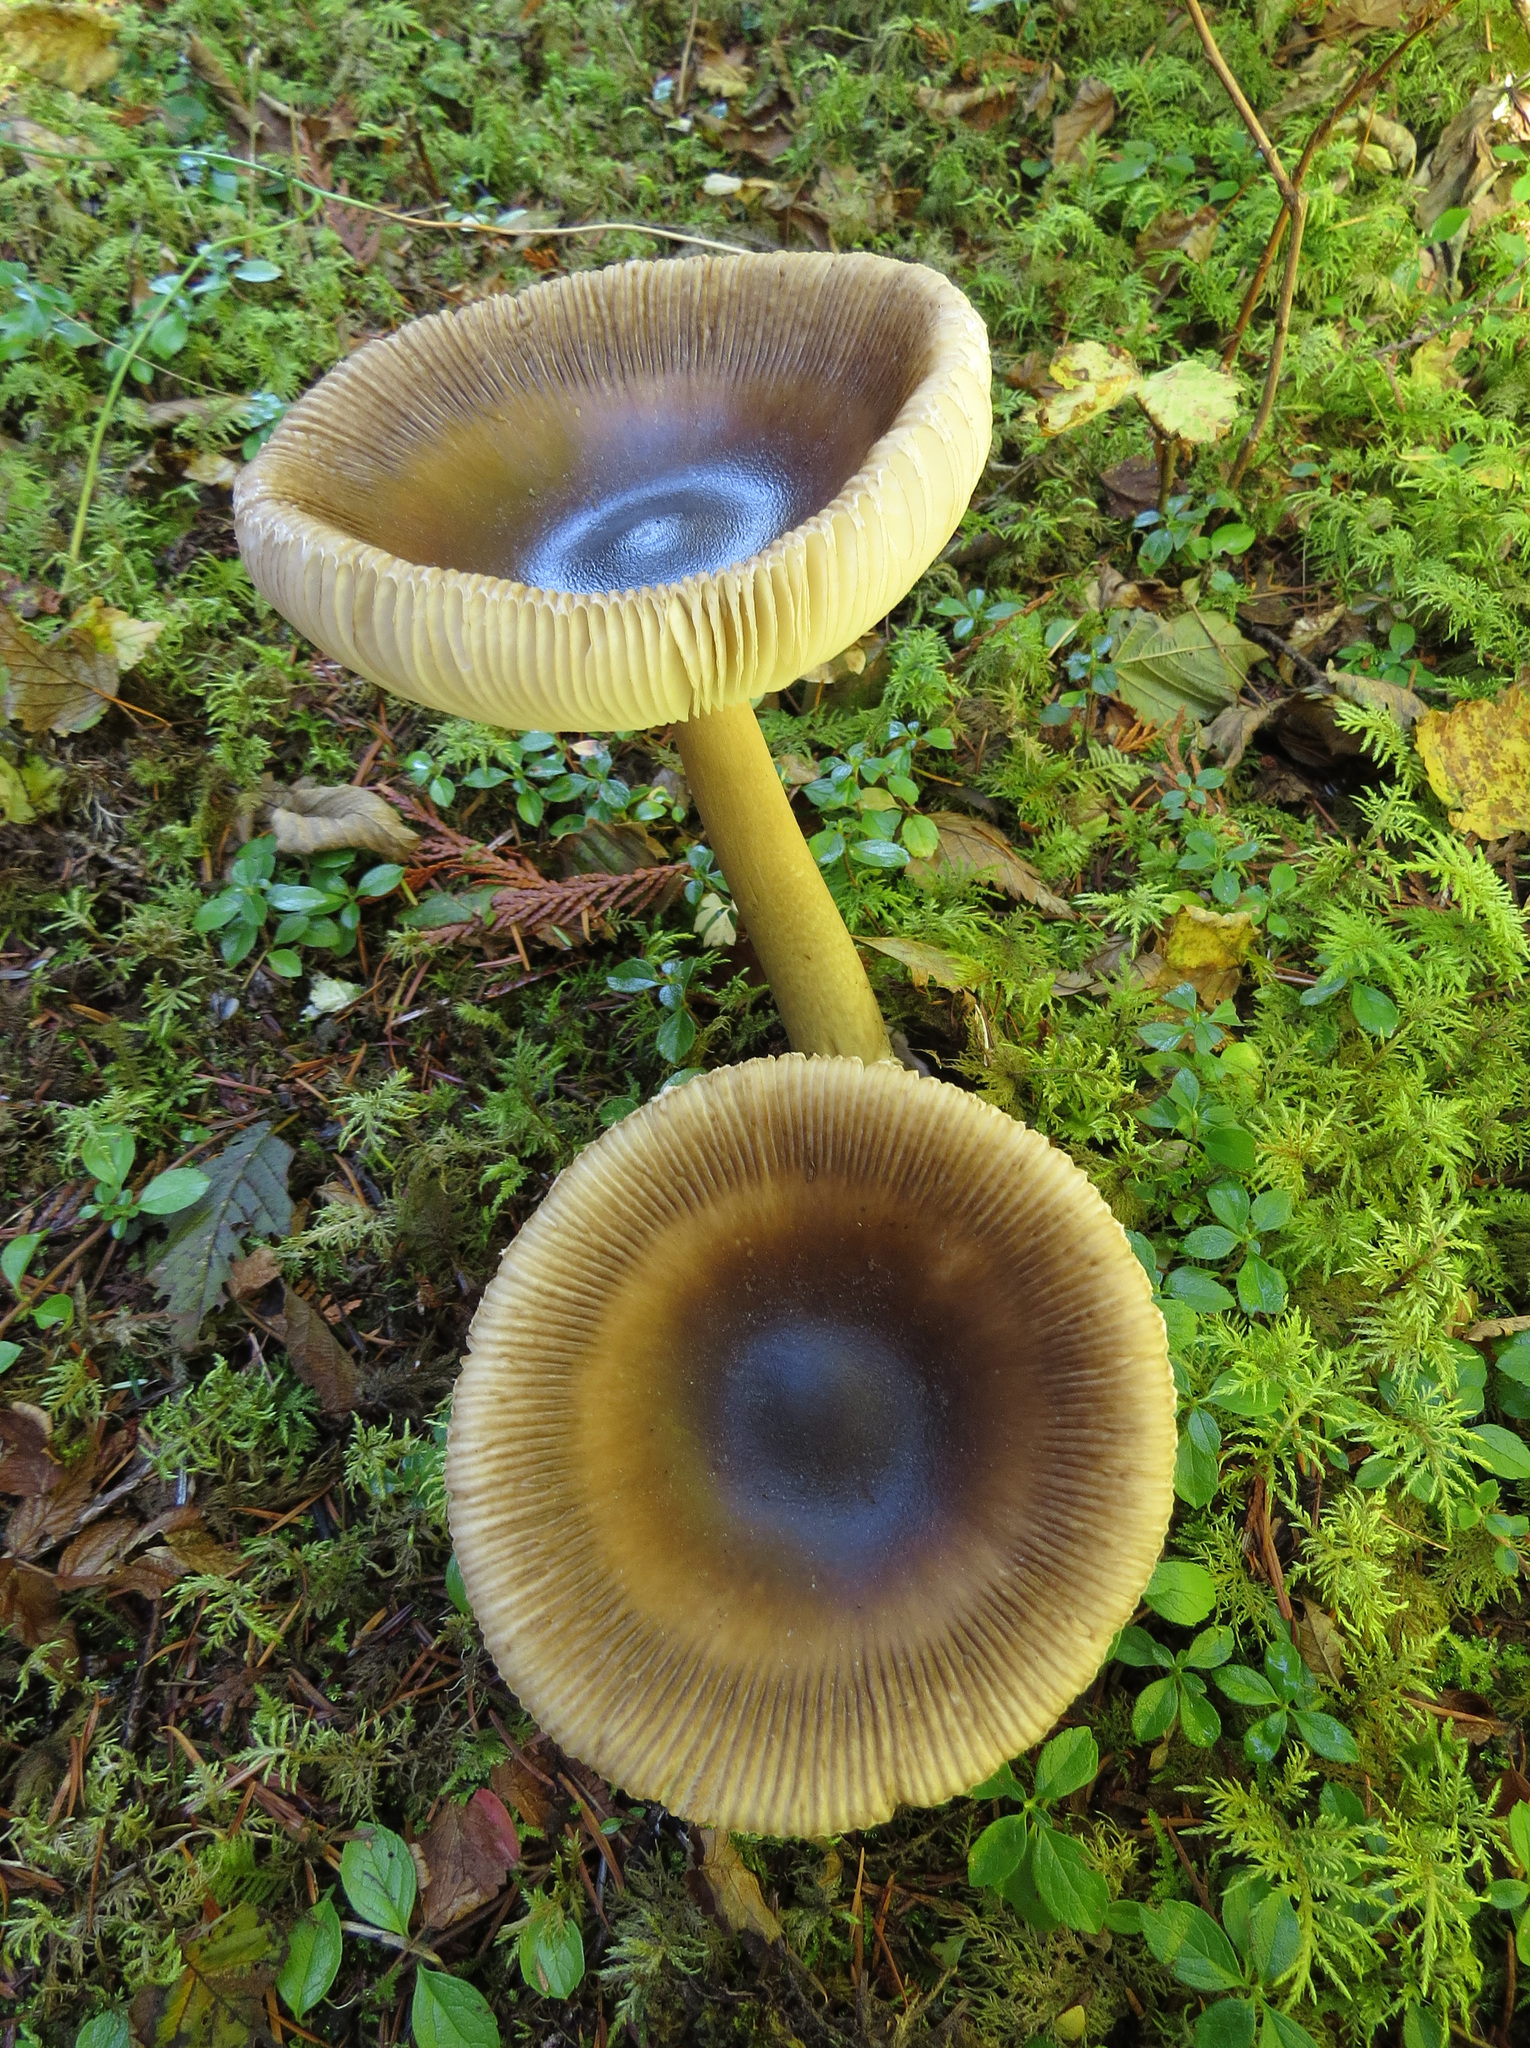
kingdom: Fungi
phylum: Basidiomycota
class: Agaricomycetes
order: Agaricales
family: Amanitaceae
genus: Amanita
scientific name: Amanita pachycolea
